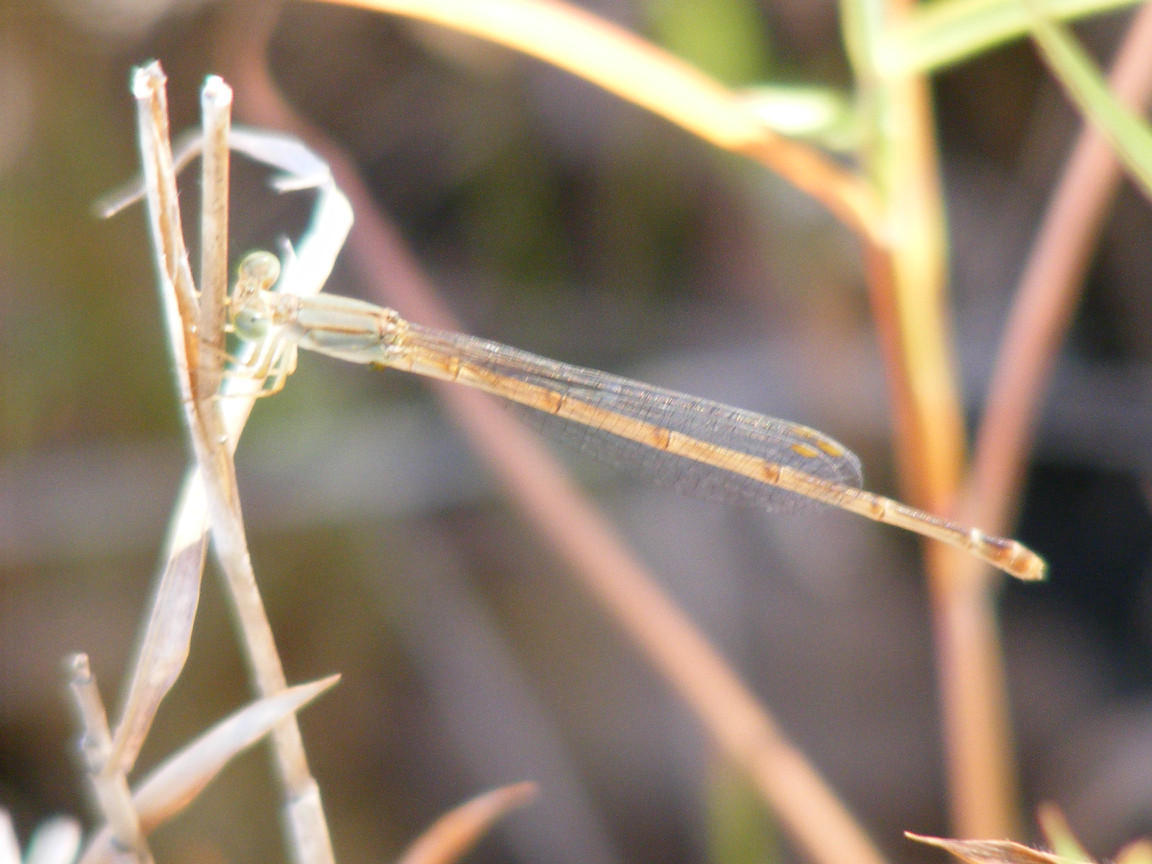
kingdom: Animalia
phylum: Arthropoda
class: Insecta
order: Odonata
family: Coenagrionidae
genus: Ceriagrion
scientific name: Ceriagrion glabrum
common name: Common pond damsel
